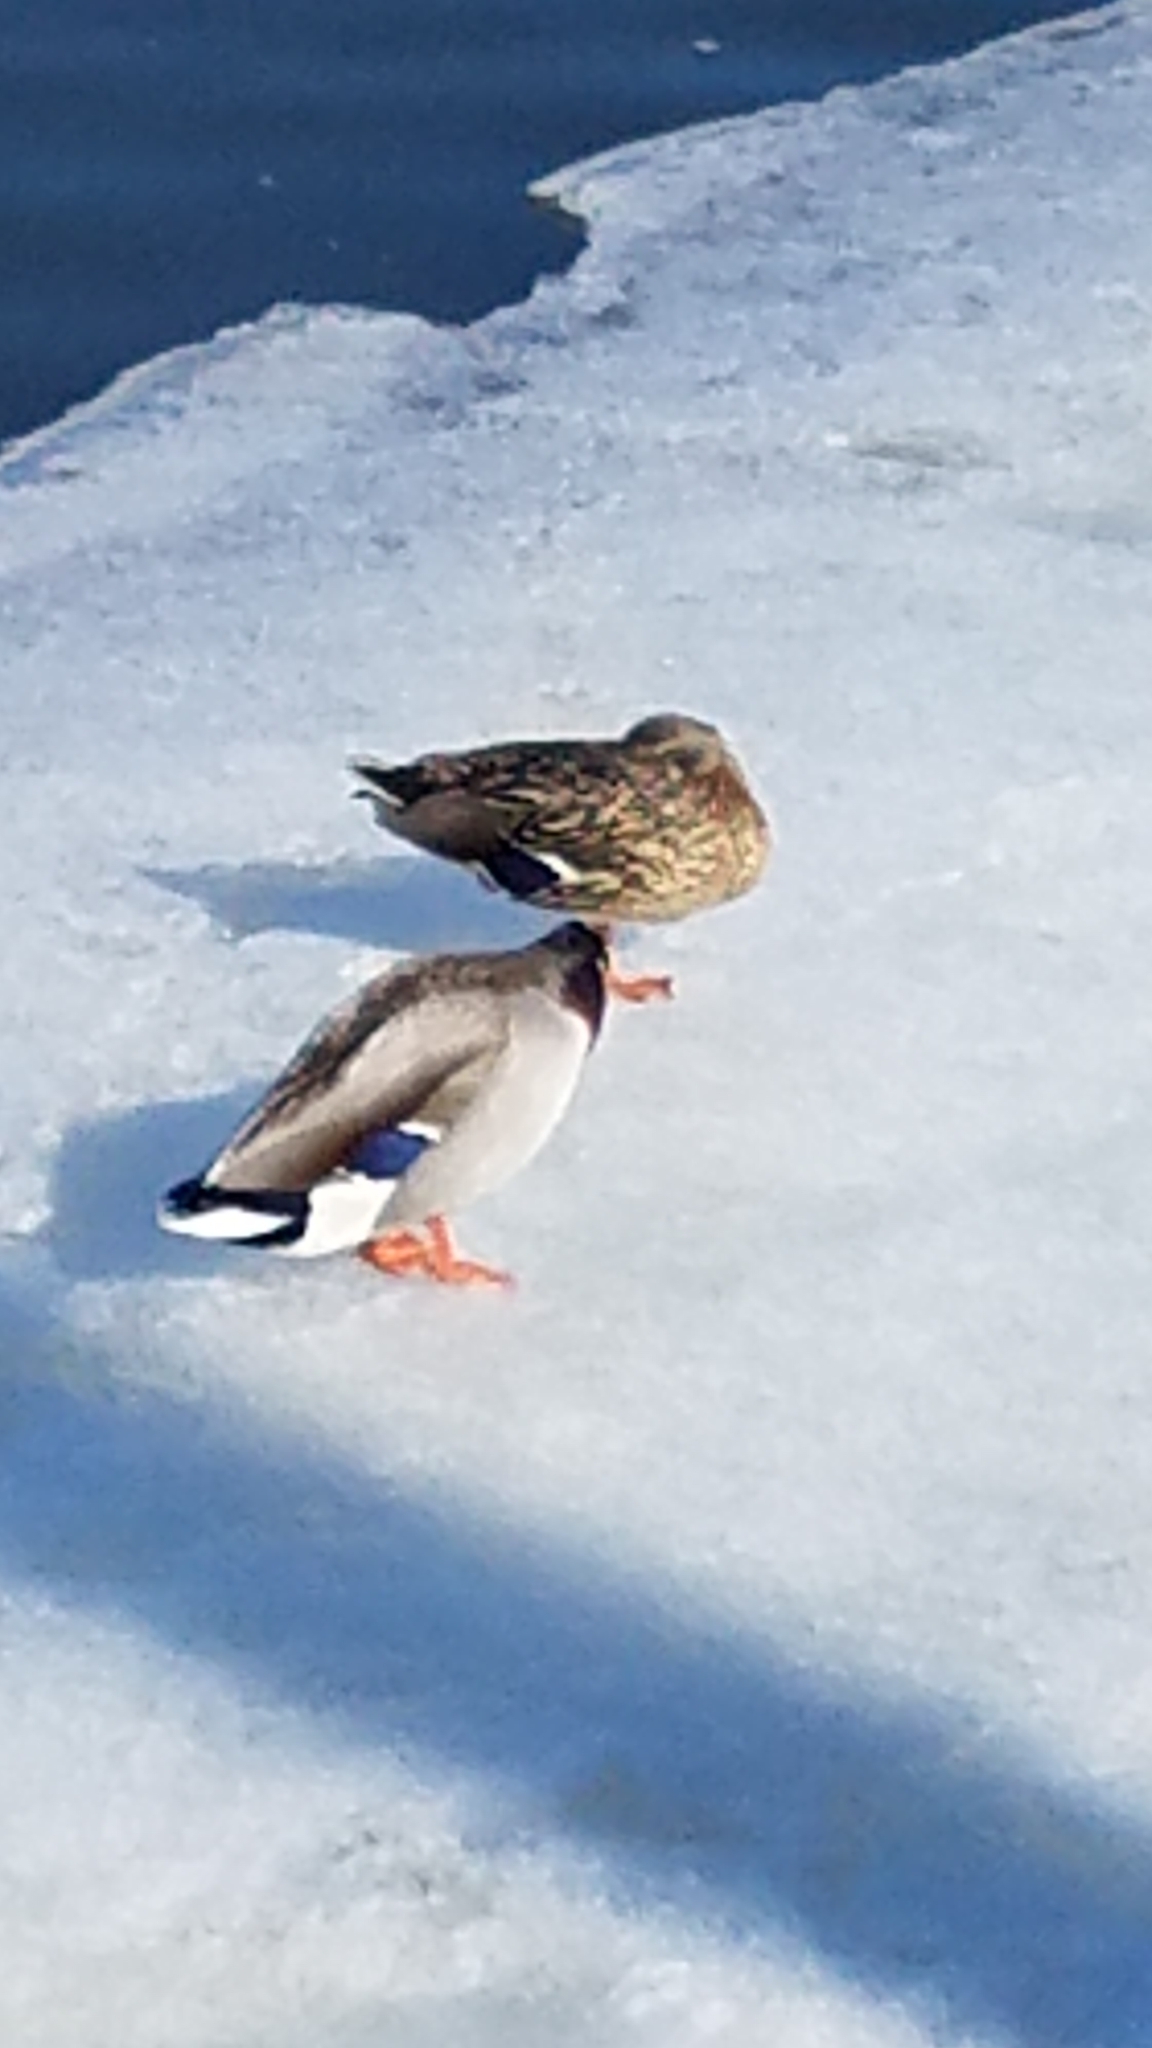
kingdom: Animalia
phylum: Chordata
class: Aves
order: Anseriformes
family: Anatidae
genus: Anas
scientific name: Anas platyrhynchos
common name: Mallard
